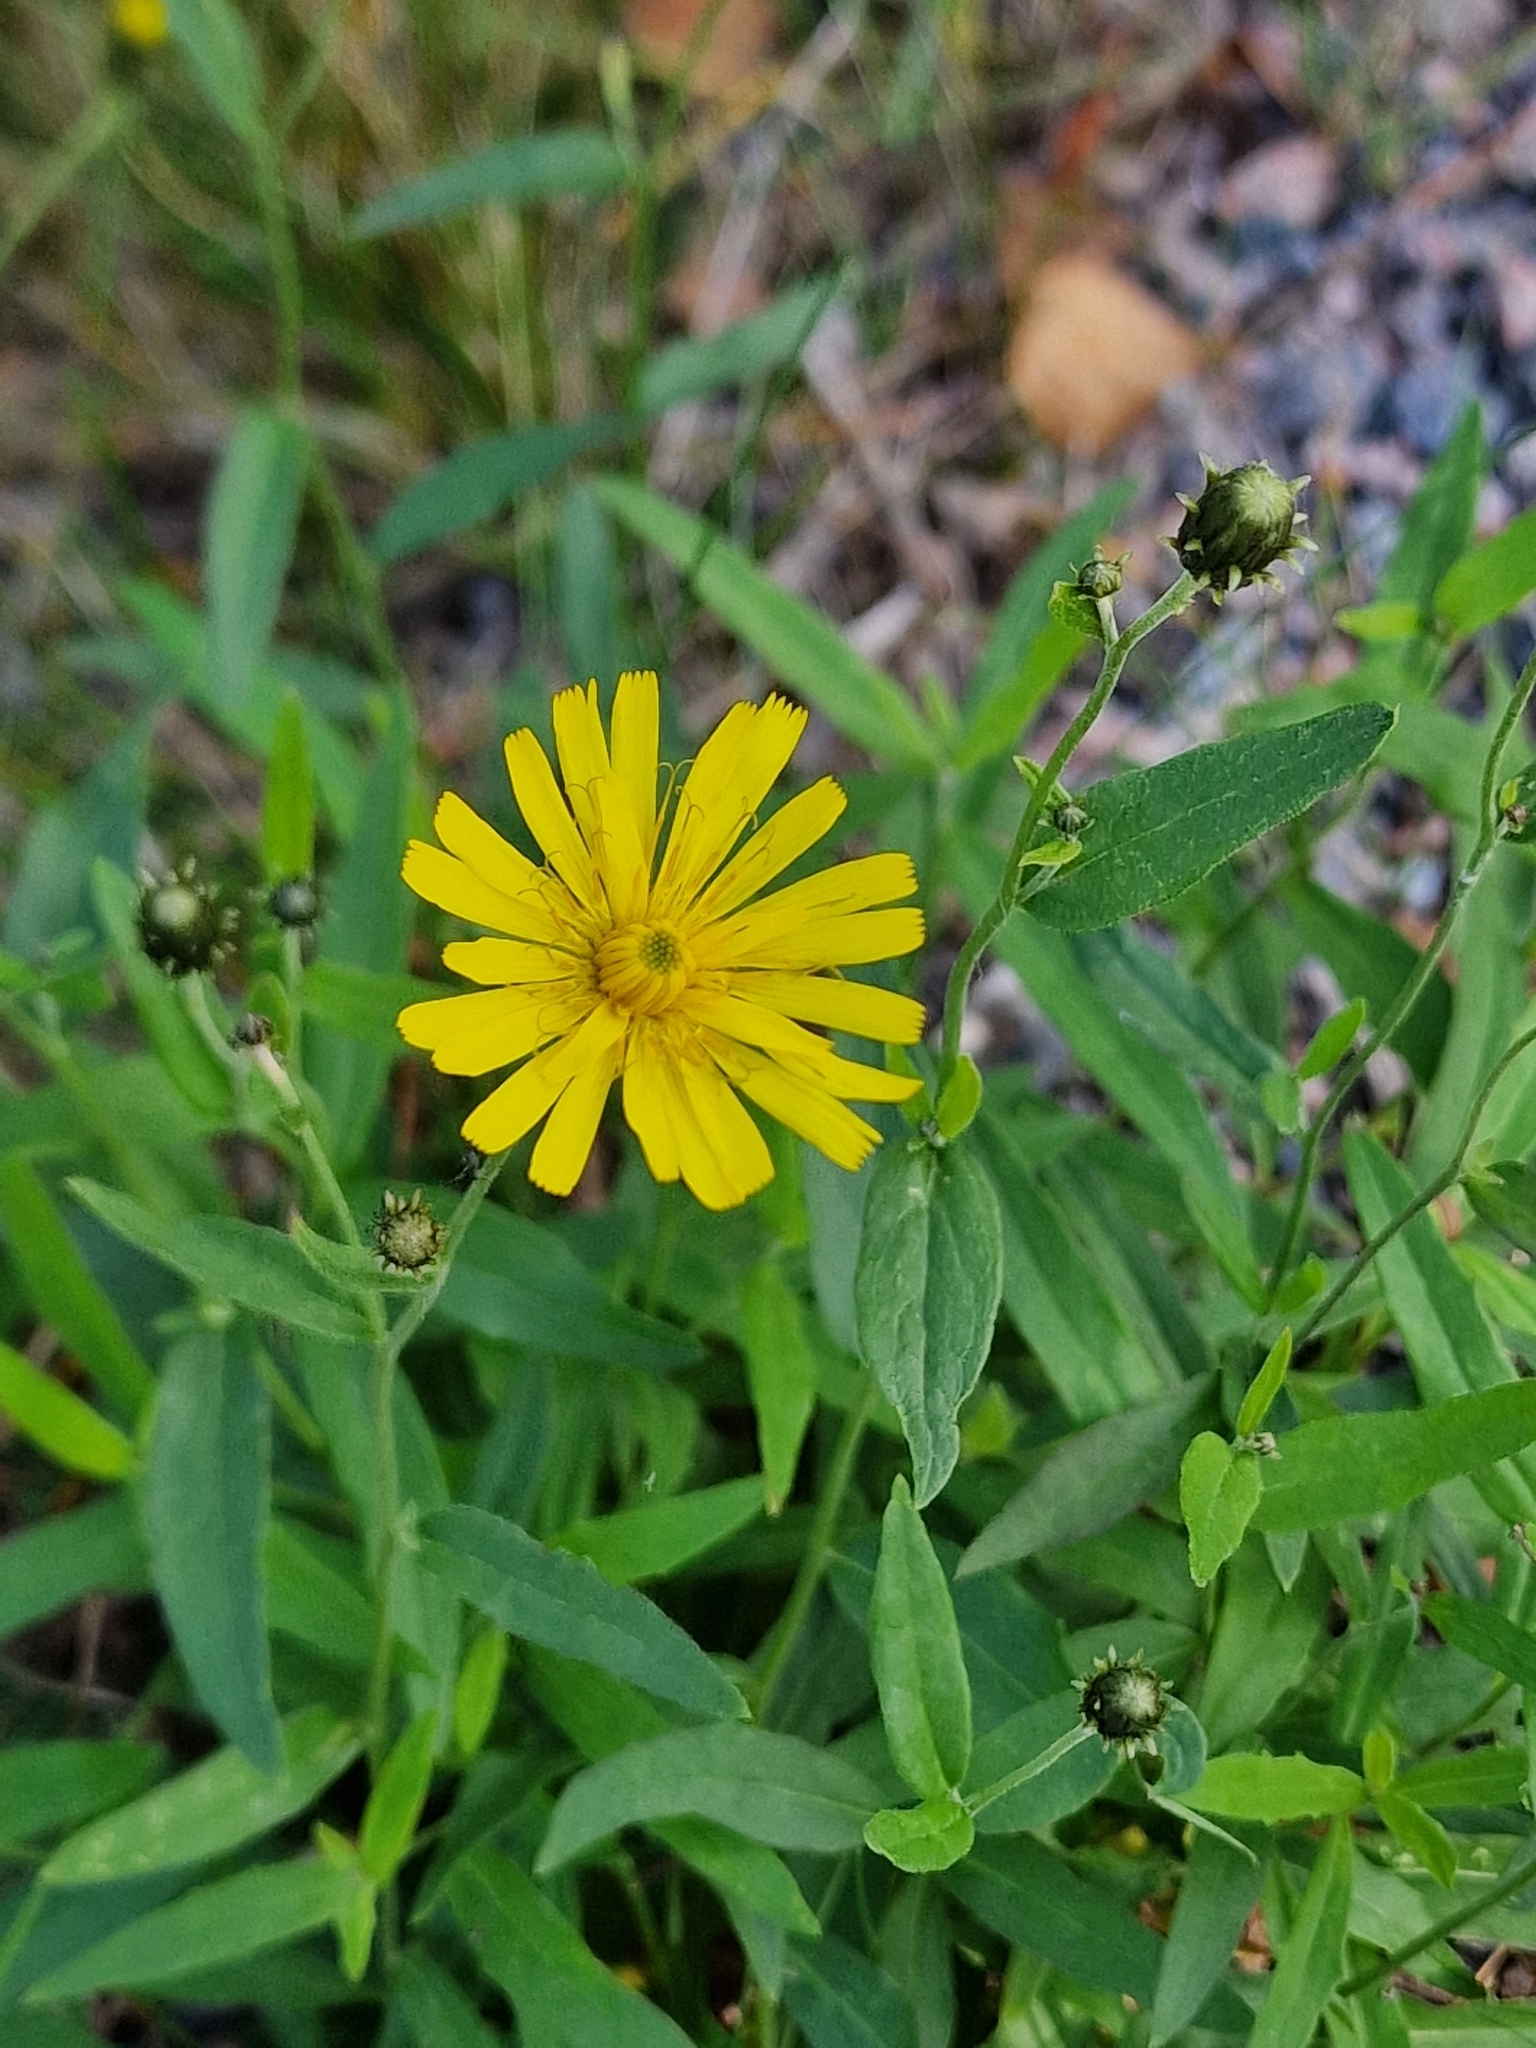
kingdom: Plantae
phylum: Tracheophyta
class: Magnoliopsida
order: Asterales
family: Asteraceae
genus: Hieracium
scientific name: Hieracium umbellatum
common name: Northern hawkweed
